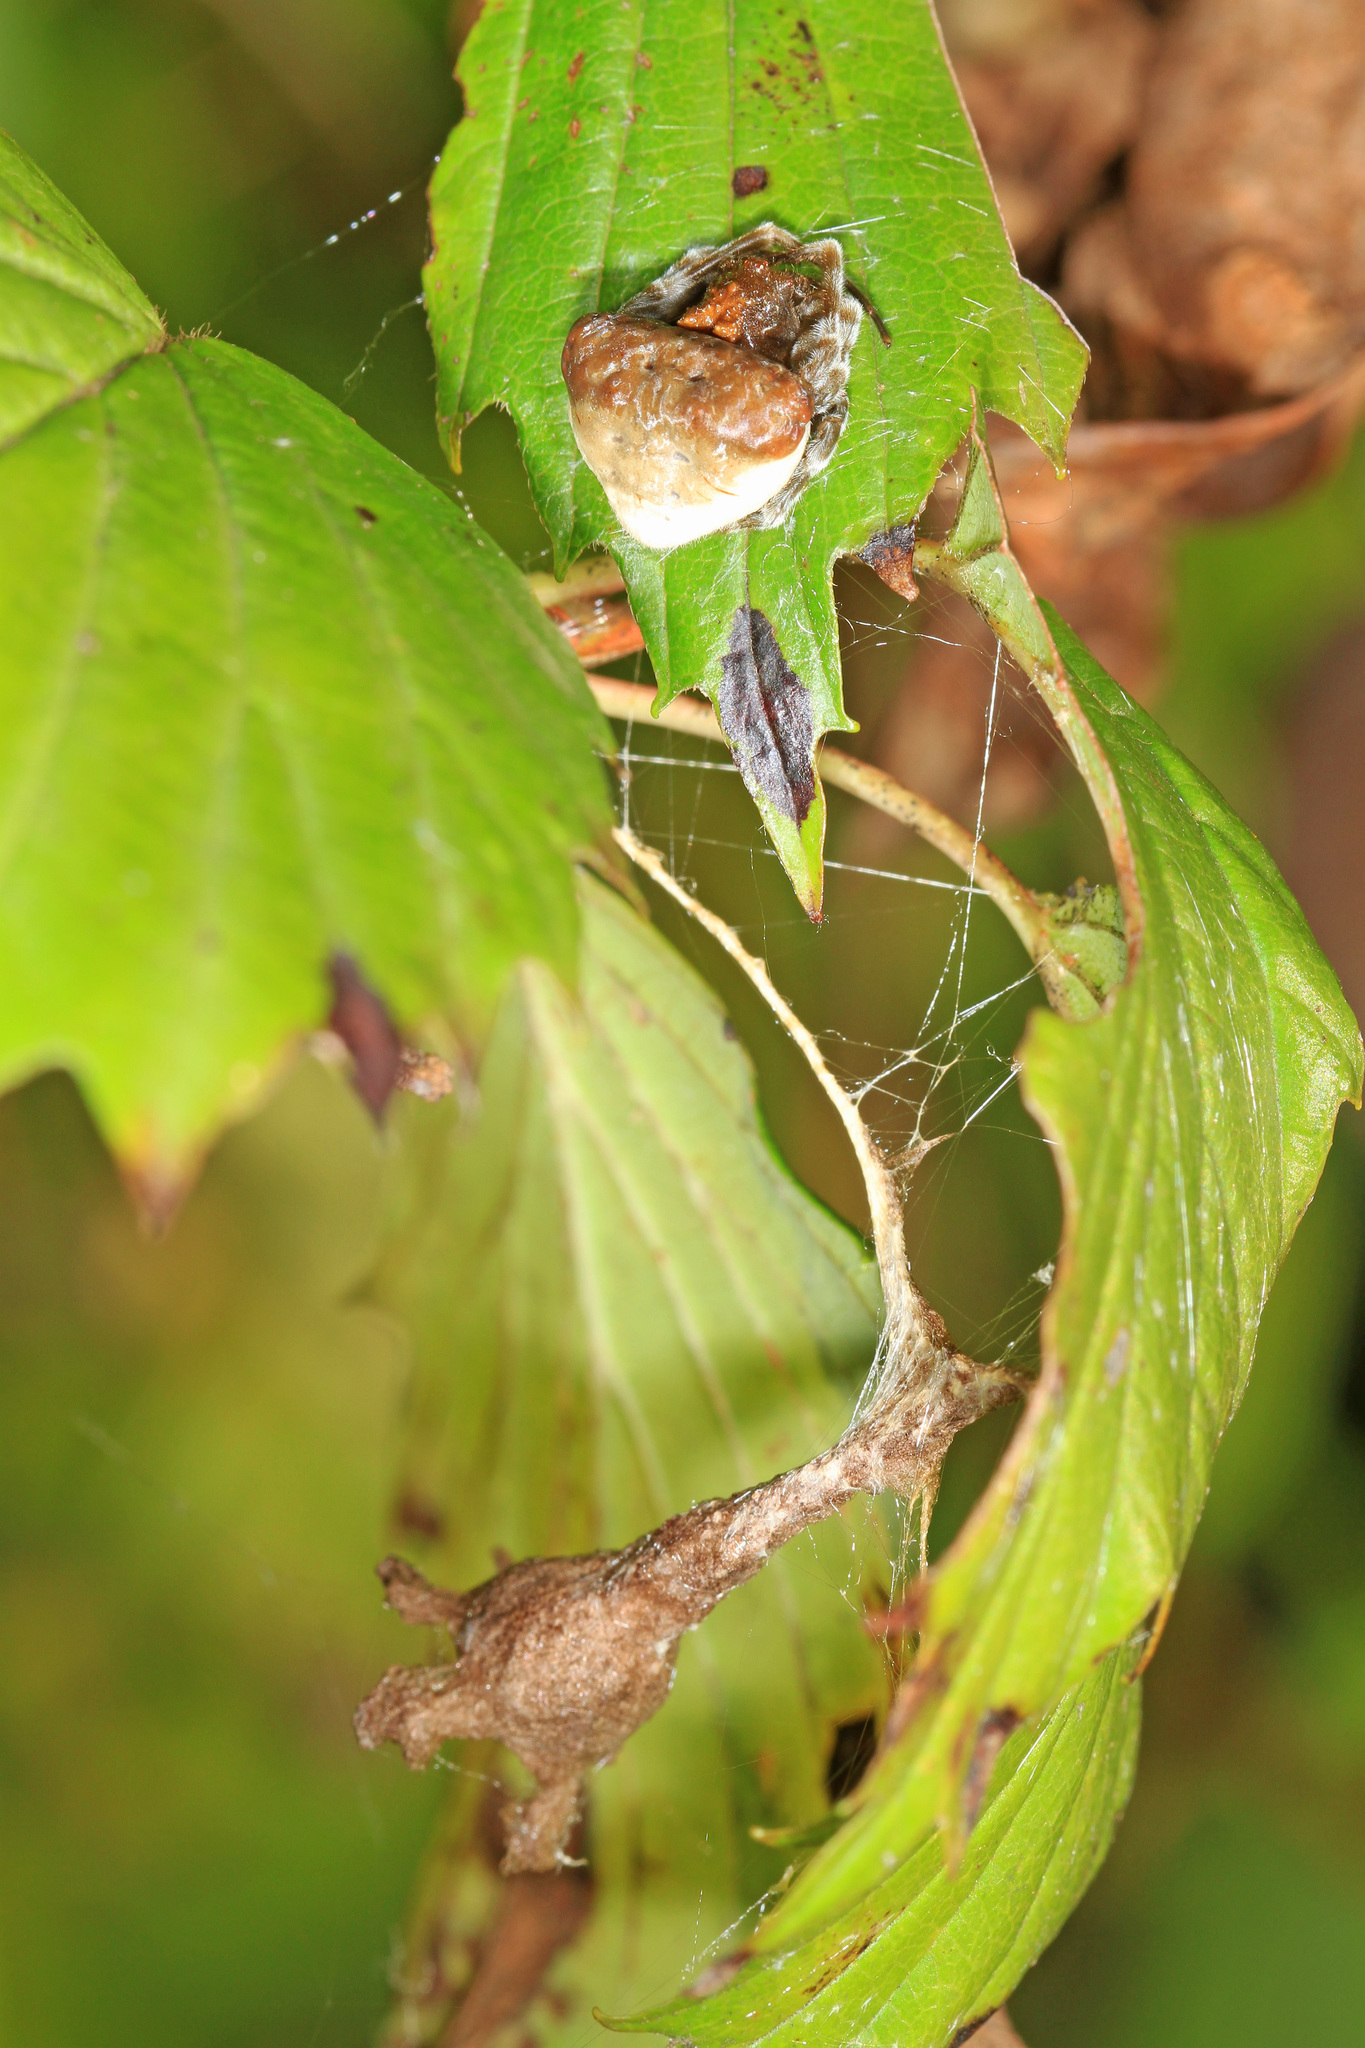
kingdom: Animalia
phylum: Arthropoda
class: Arachnida
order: Araneae
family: Araneidae
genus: Mastophora
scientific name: Mastophora phrynosoma
